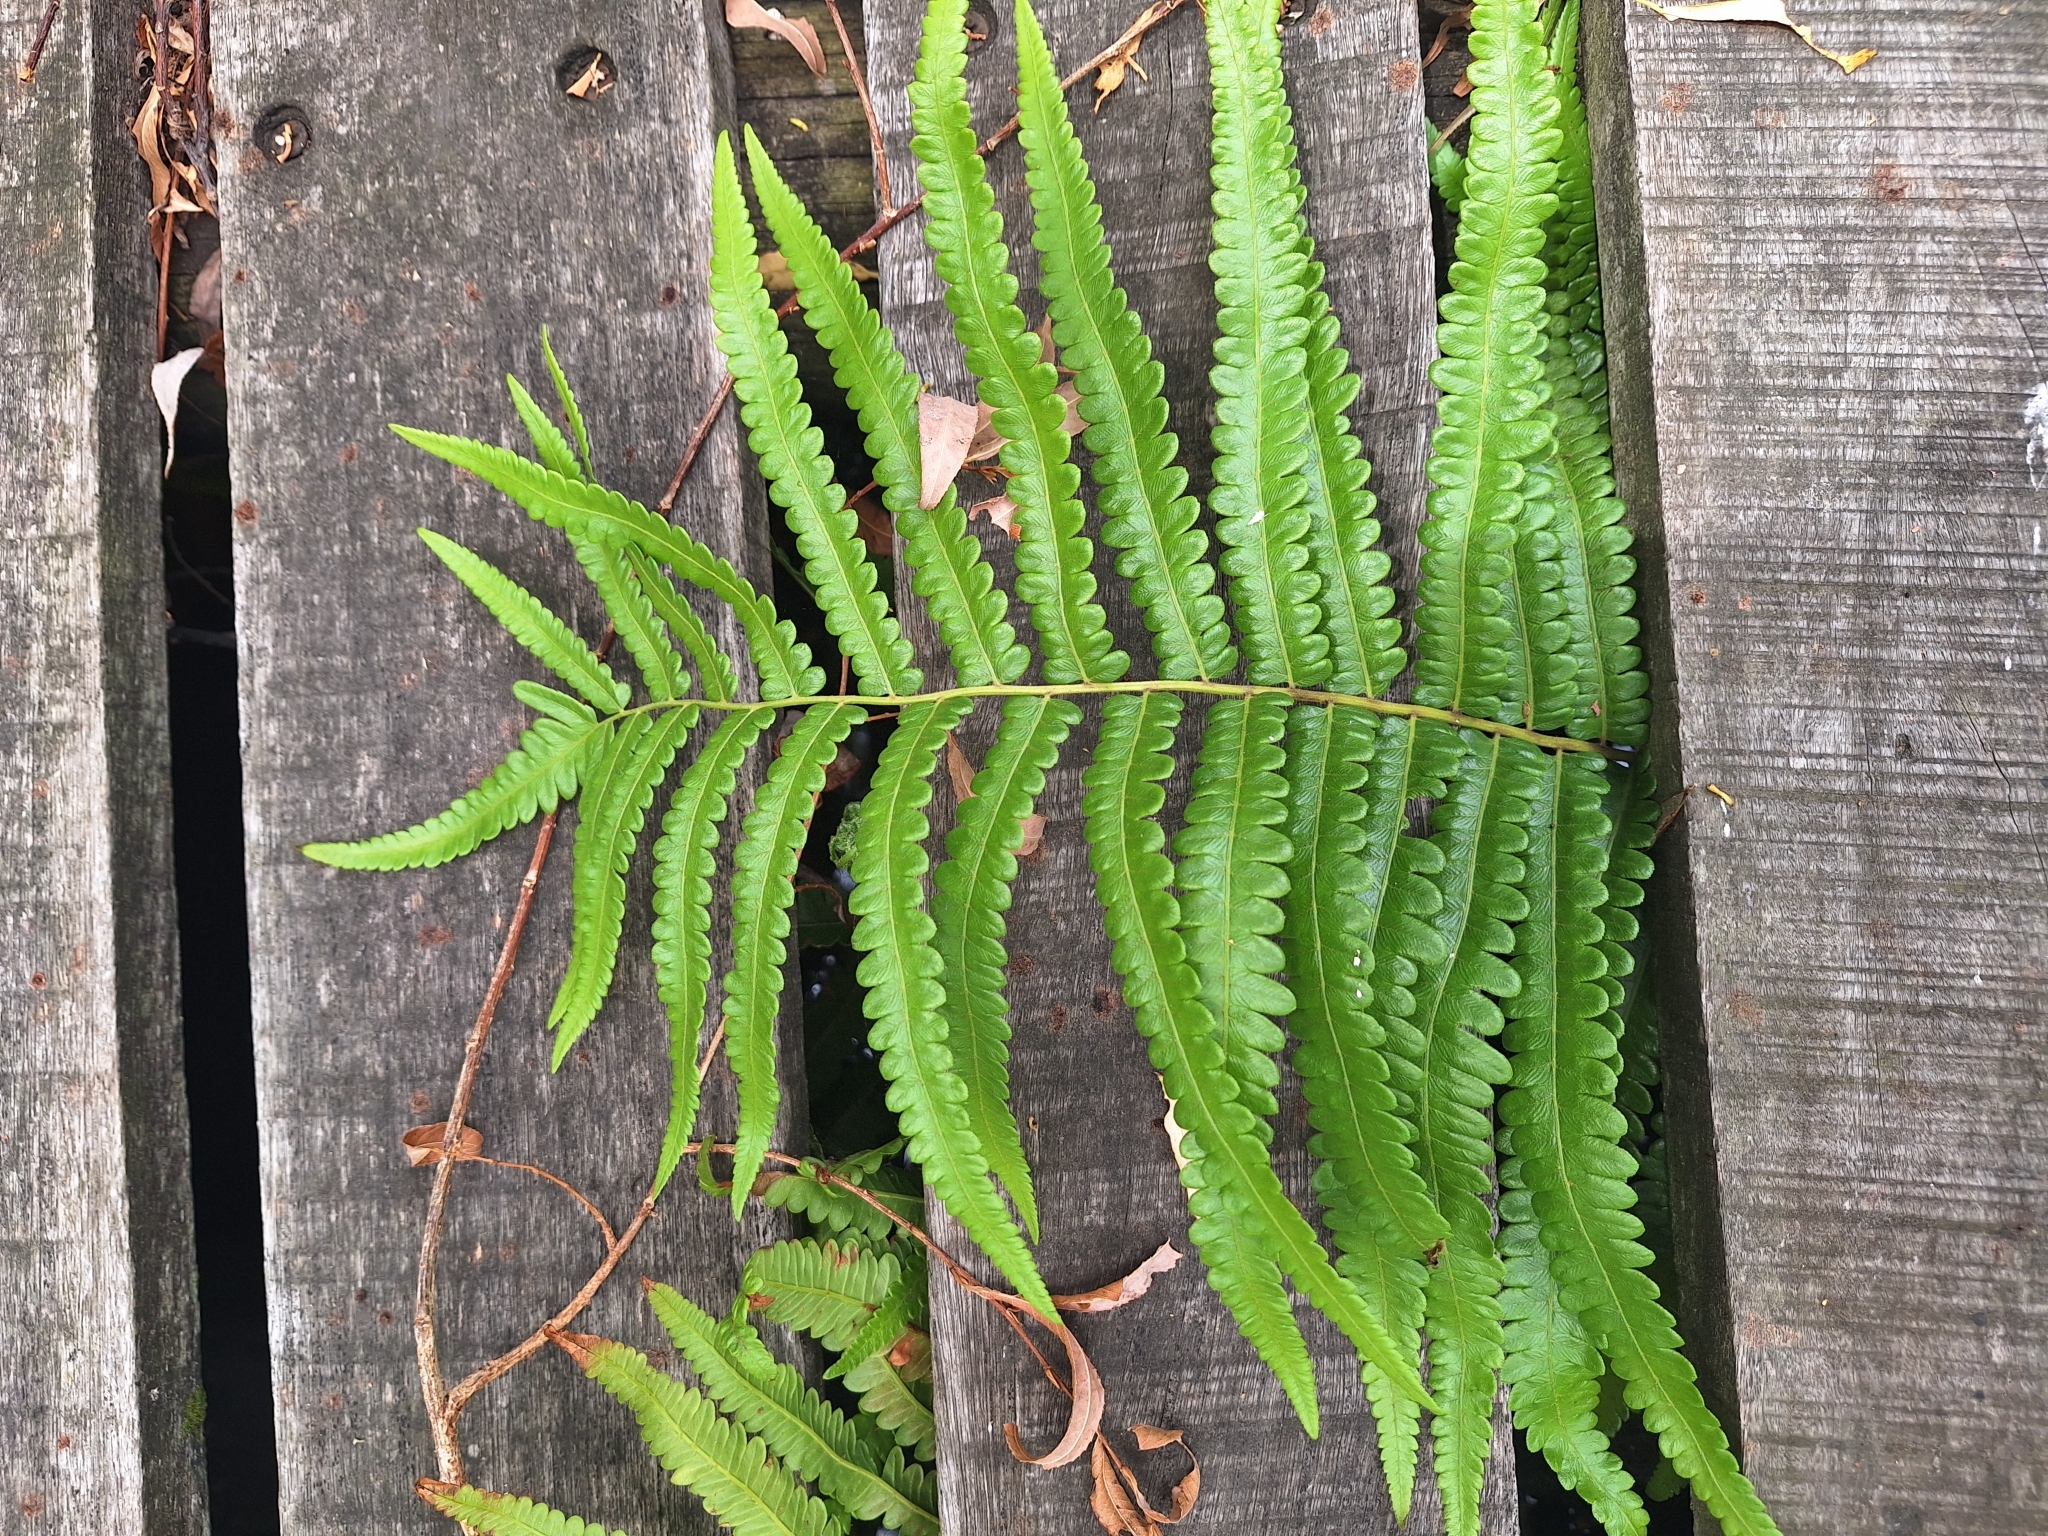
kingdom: Plantae
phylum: Tracheophyta
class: Polypodiopsida
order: Polypodiales
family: Thelypteridaceae
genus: Cyclosorus
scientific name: Cyclosorus interruptus
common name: Neke fern
